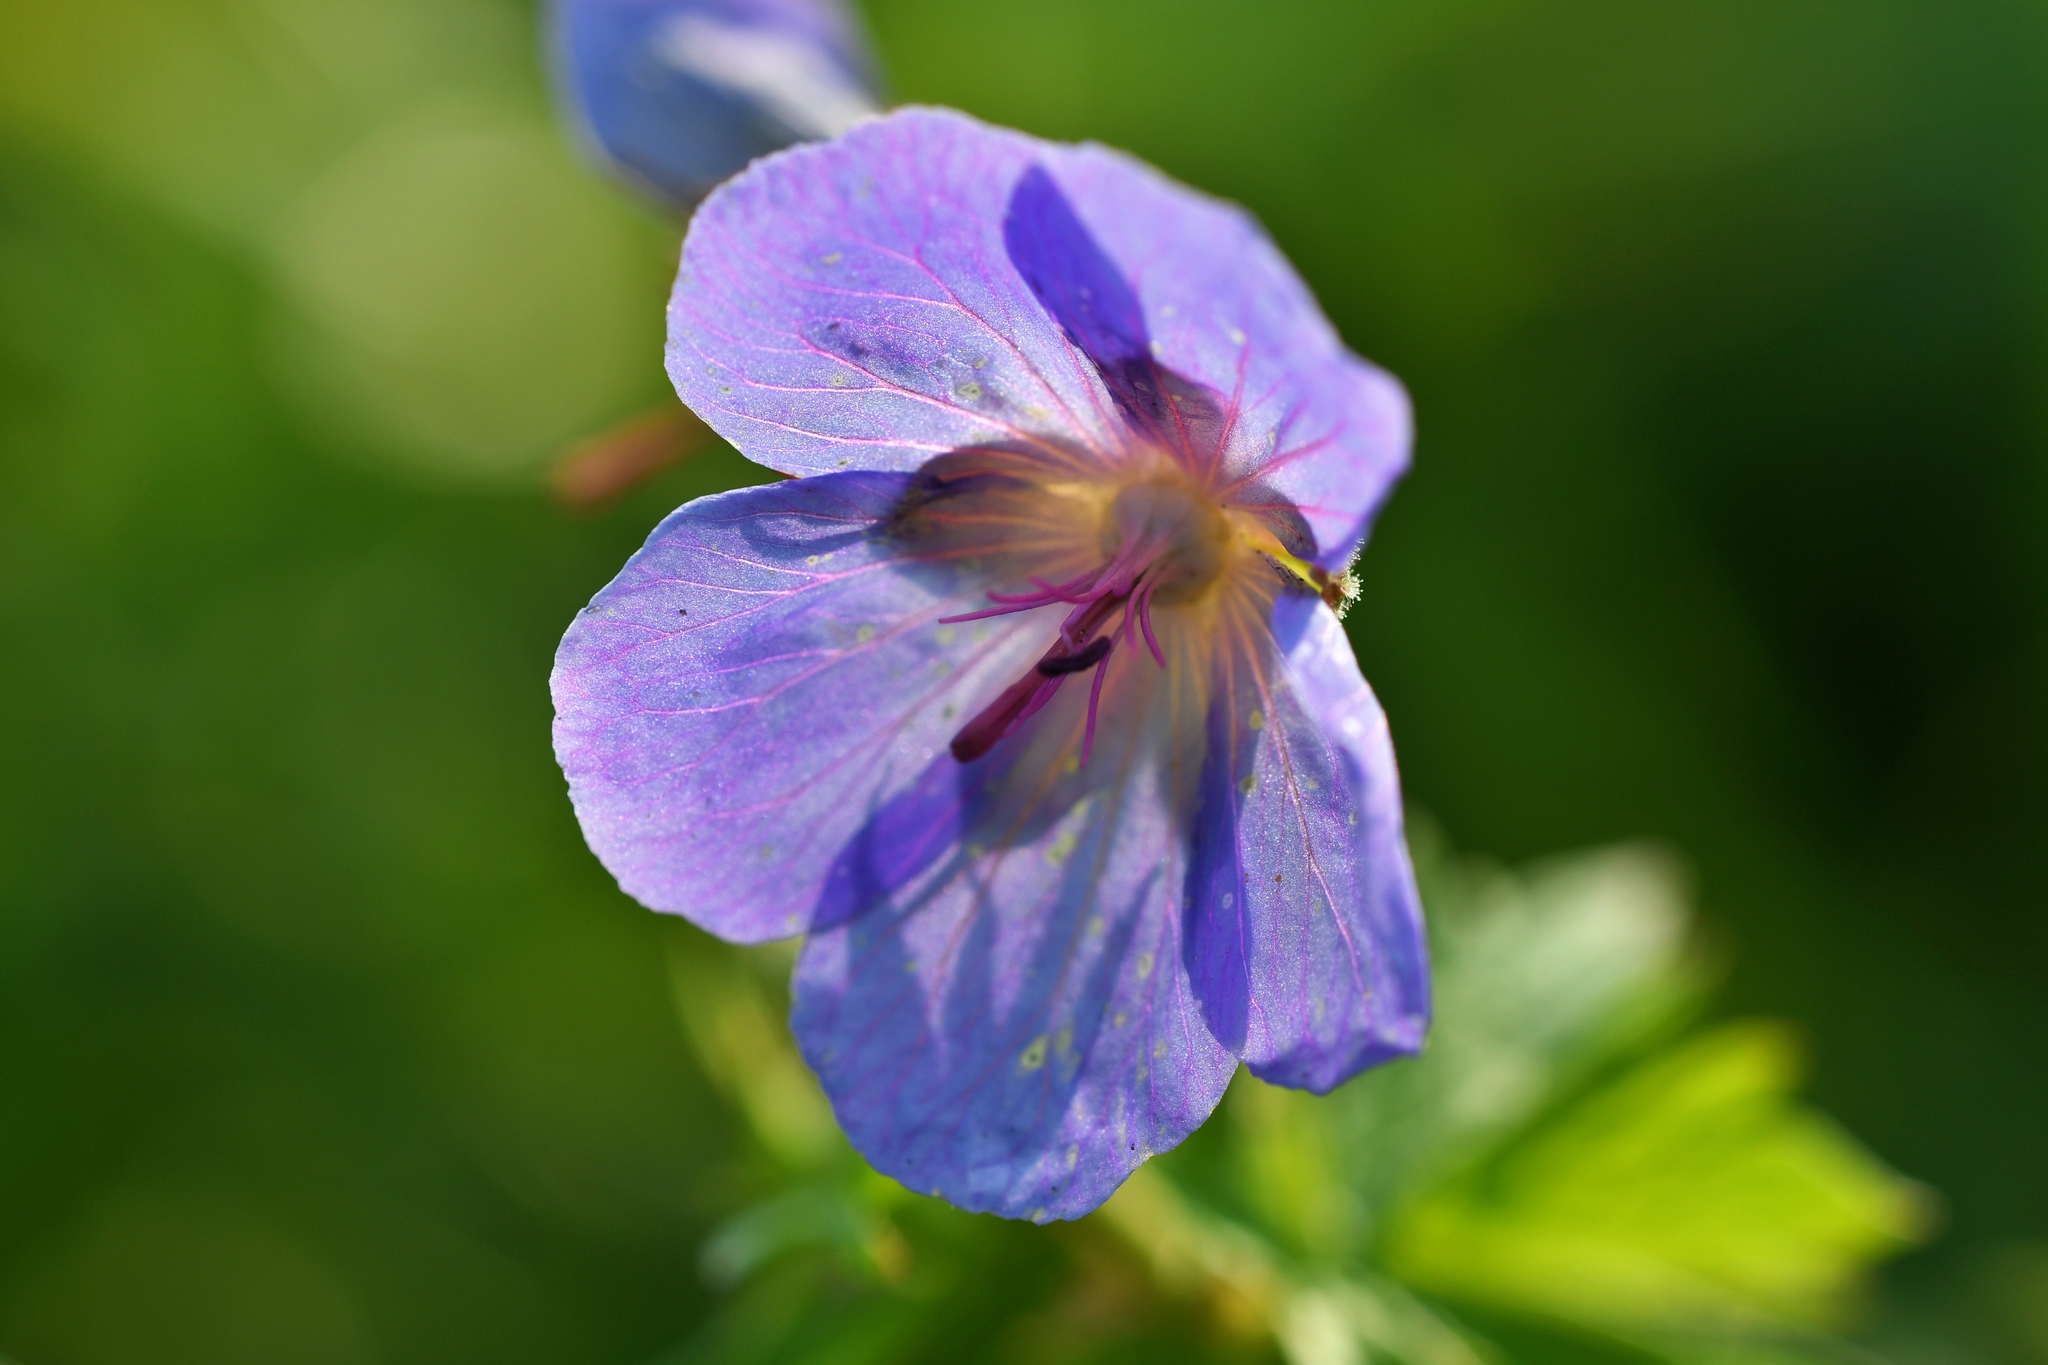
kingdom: Plantae
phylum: Tracheophyta
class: Magnoliopsida
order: Geraniales
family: Geraniaceae
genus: Geranium
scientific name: Geranium pratense
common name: Meadow crane's-bill
